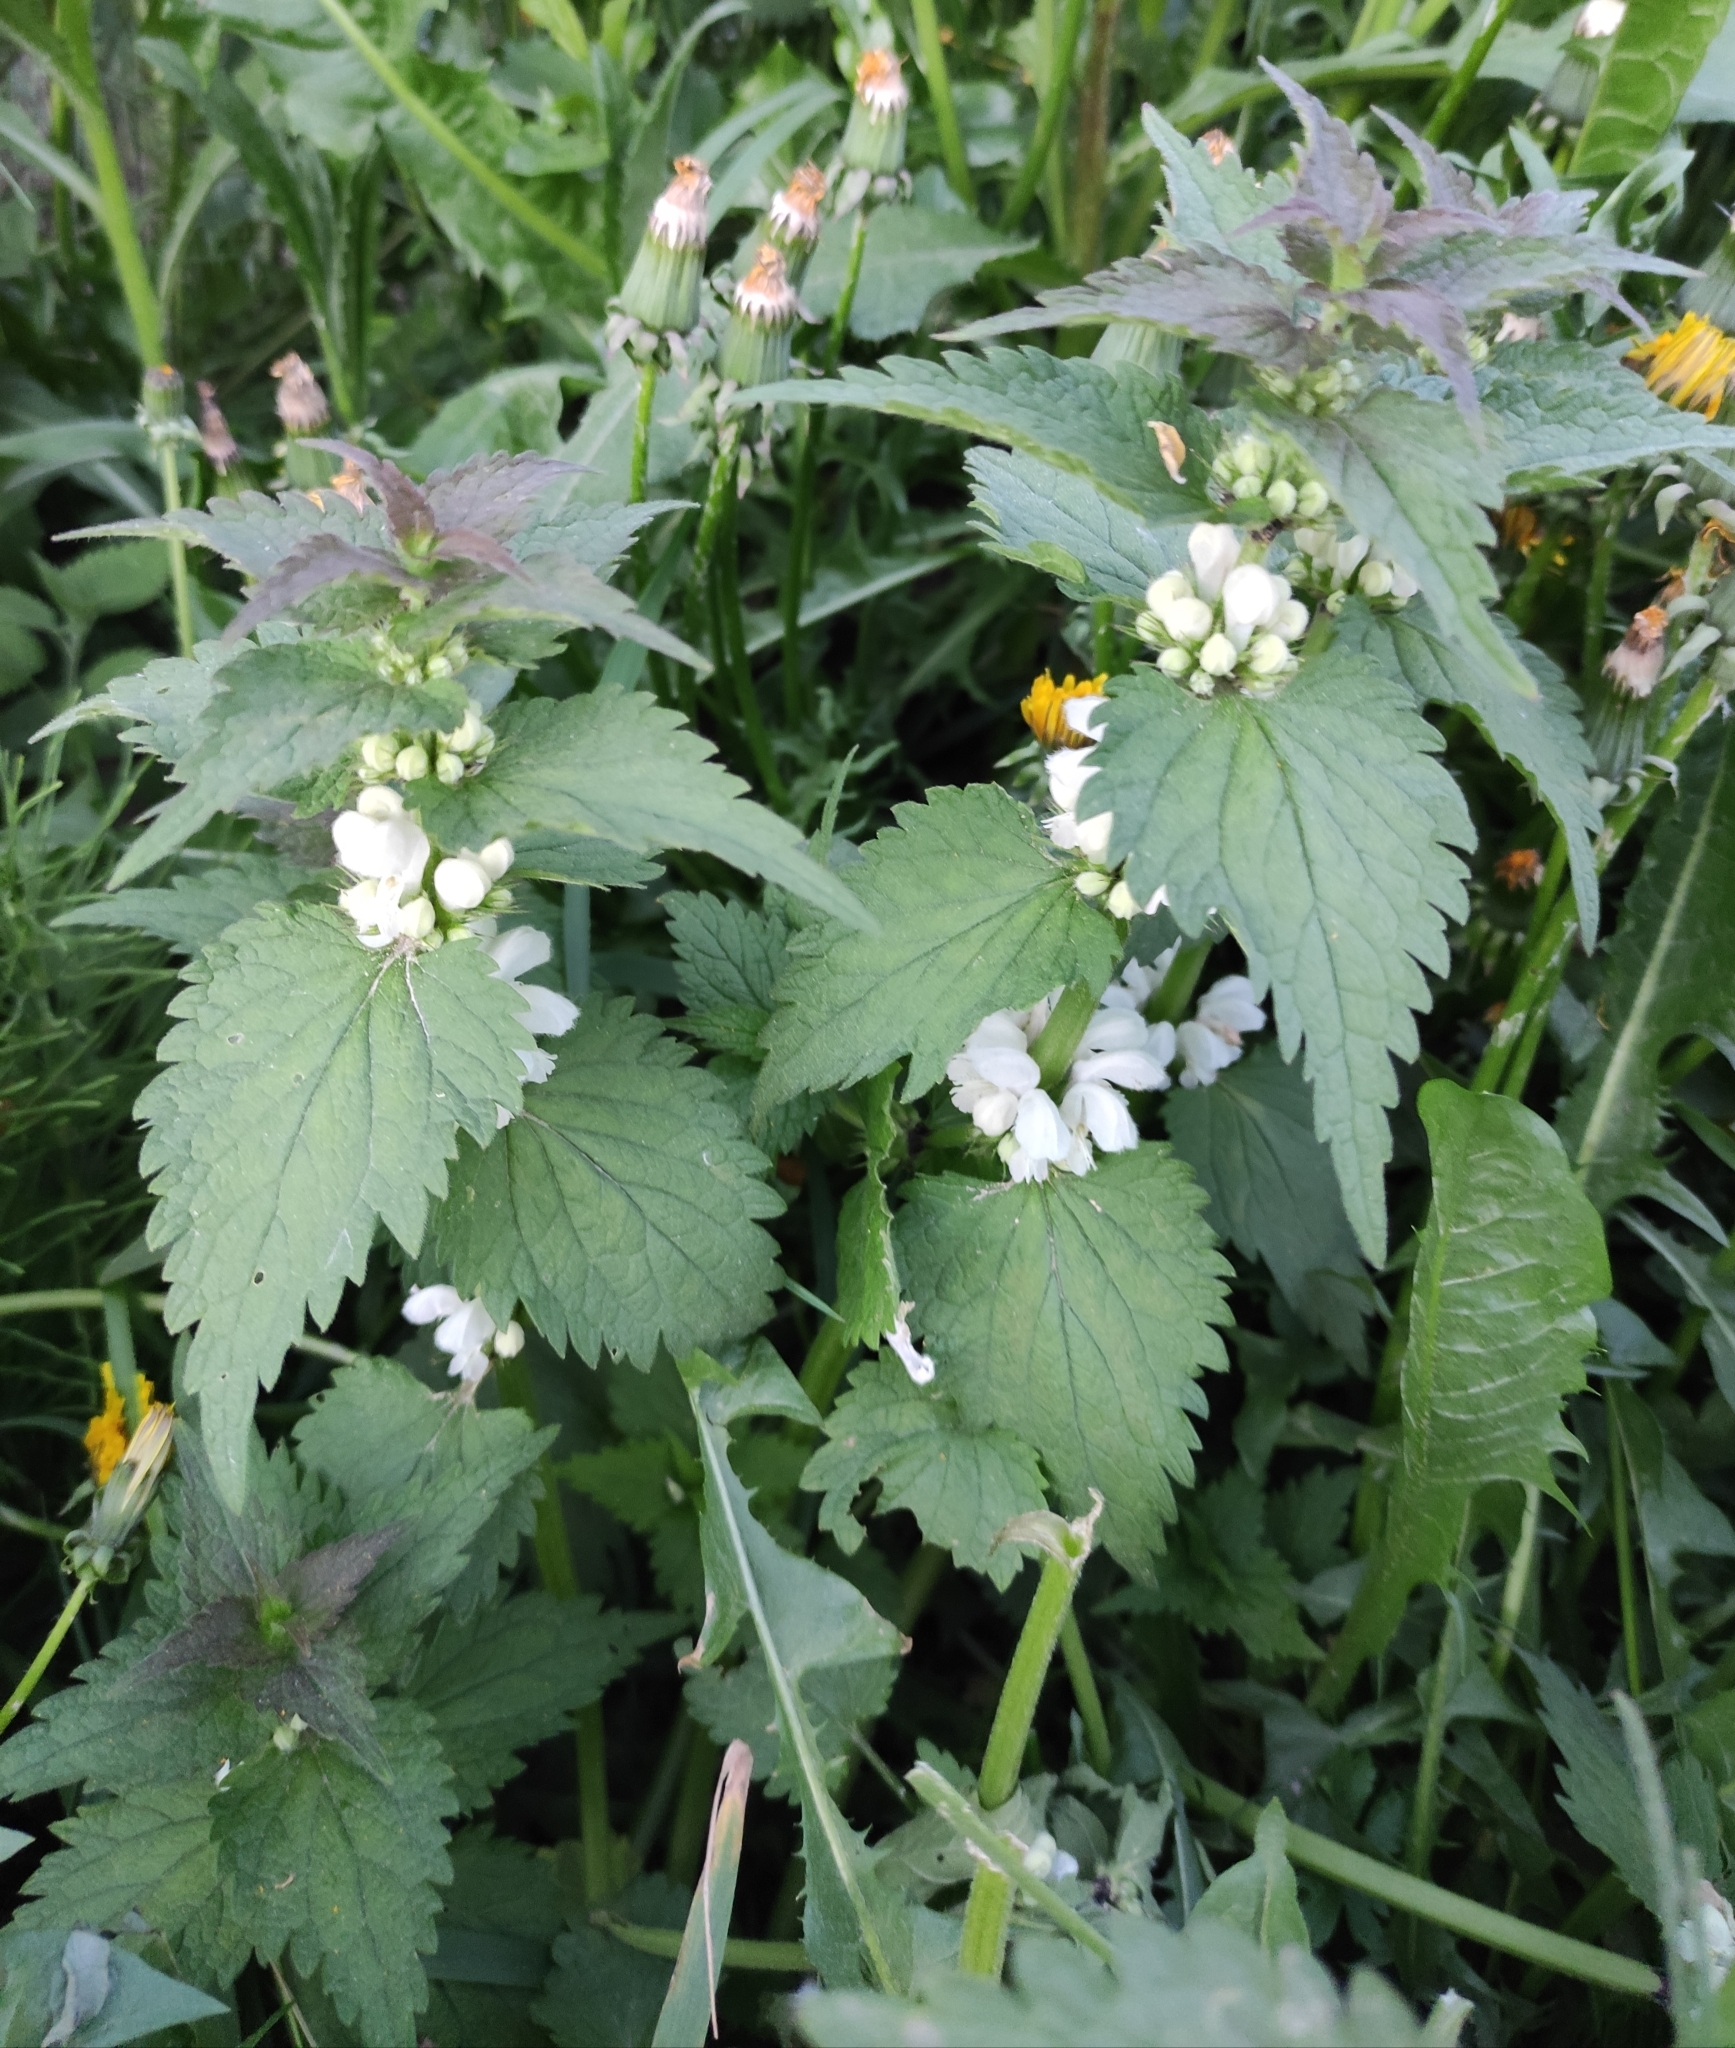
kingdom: Plantae
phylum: Tracheophyta
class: Magnoliopsida
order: Lamiales
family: Lamiaceae
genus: Lamium
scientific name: Lamium album
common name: White dead-nettle
